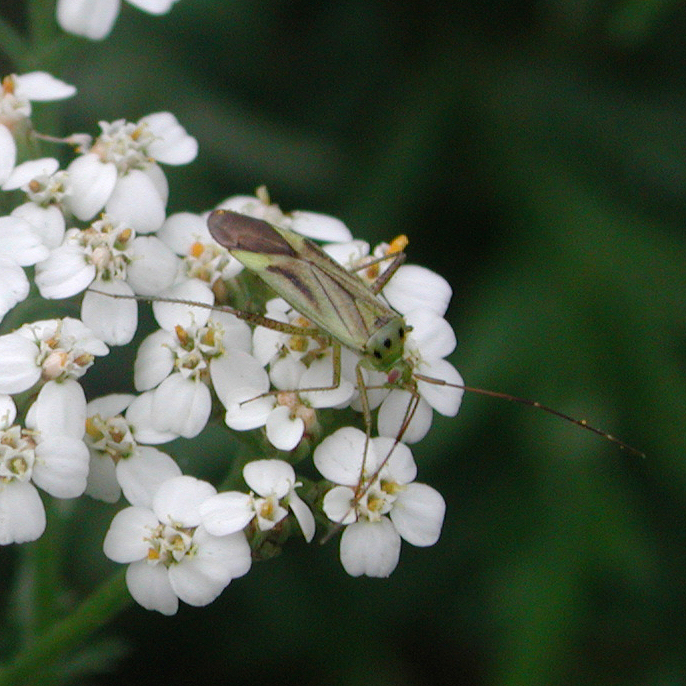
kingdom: Animalia
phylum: Arthropoda
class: Insecta
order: Hemiptera
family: Miridae
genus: Adelphocoris
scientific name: Adelphocoris quadripunctatus
